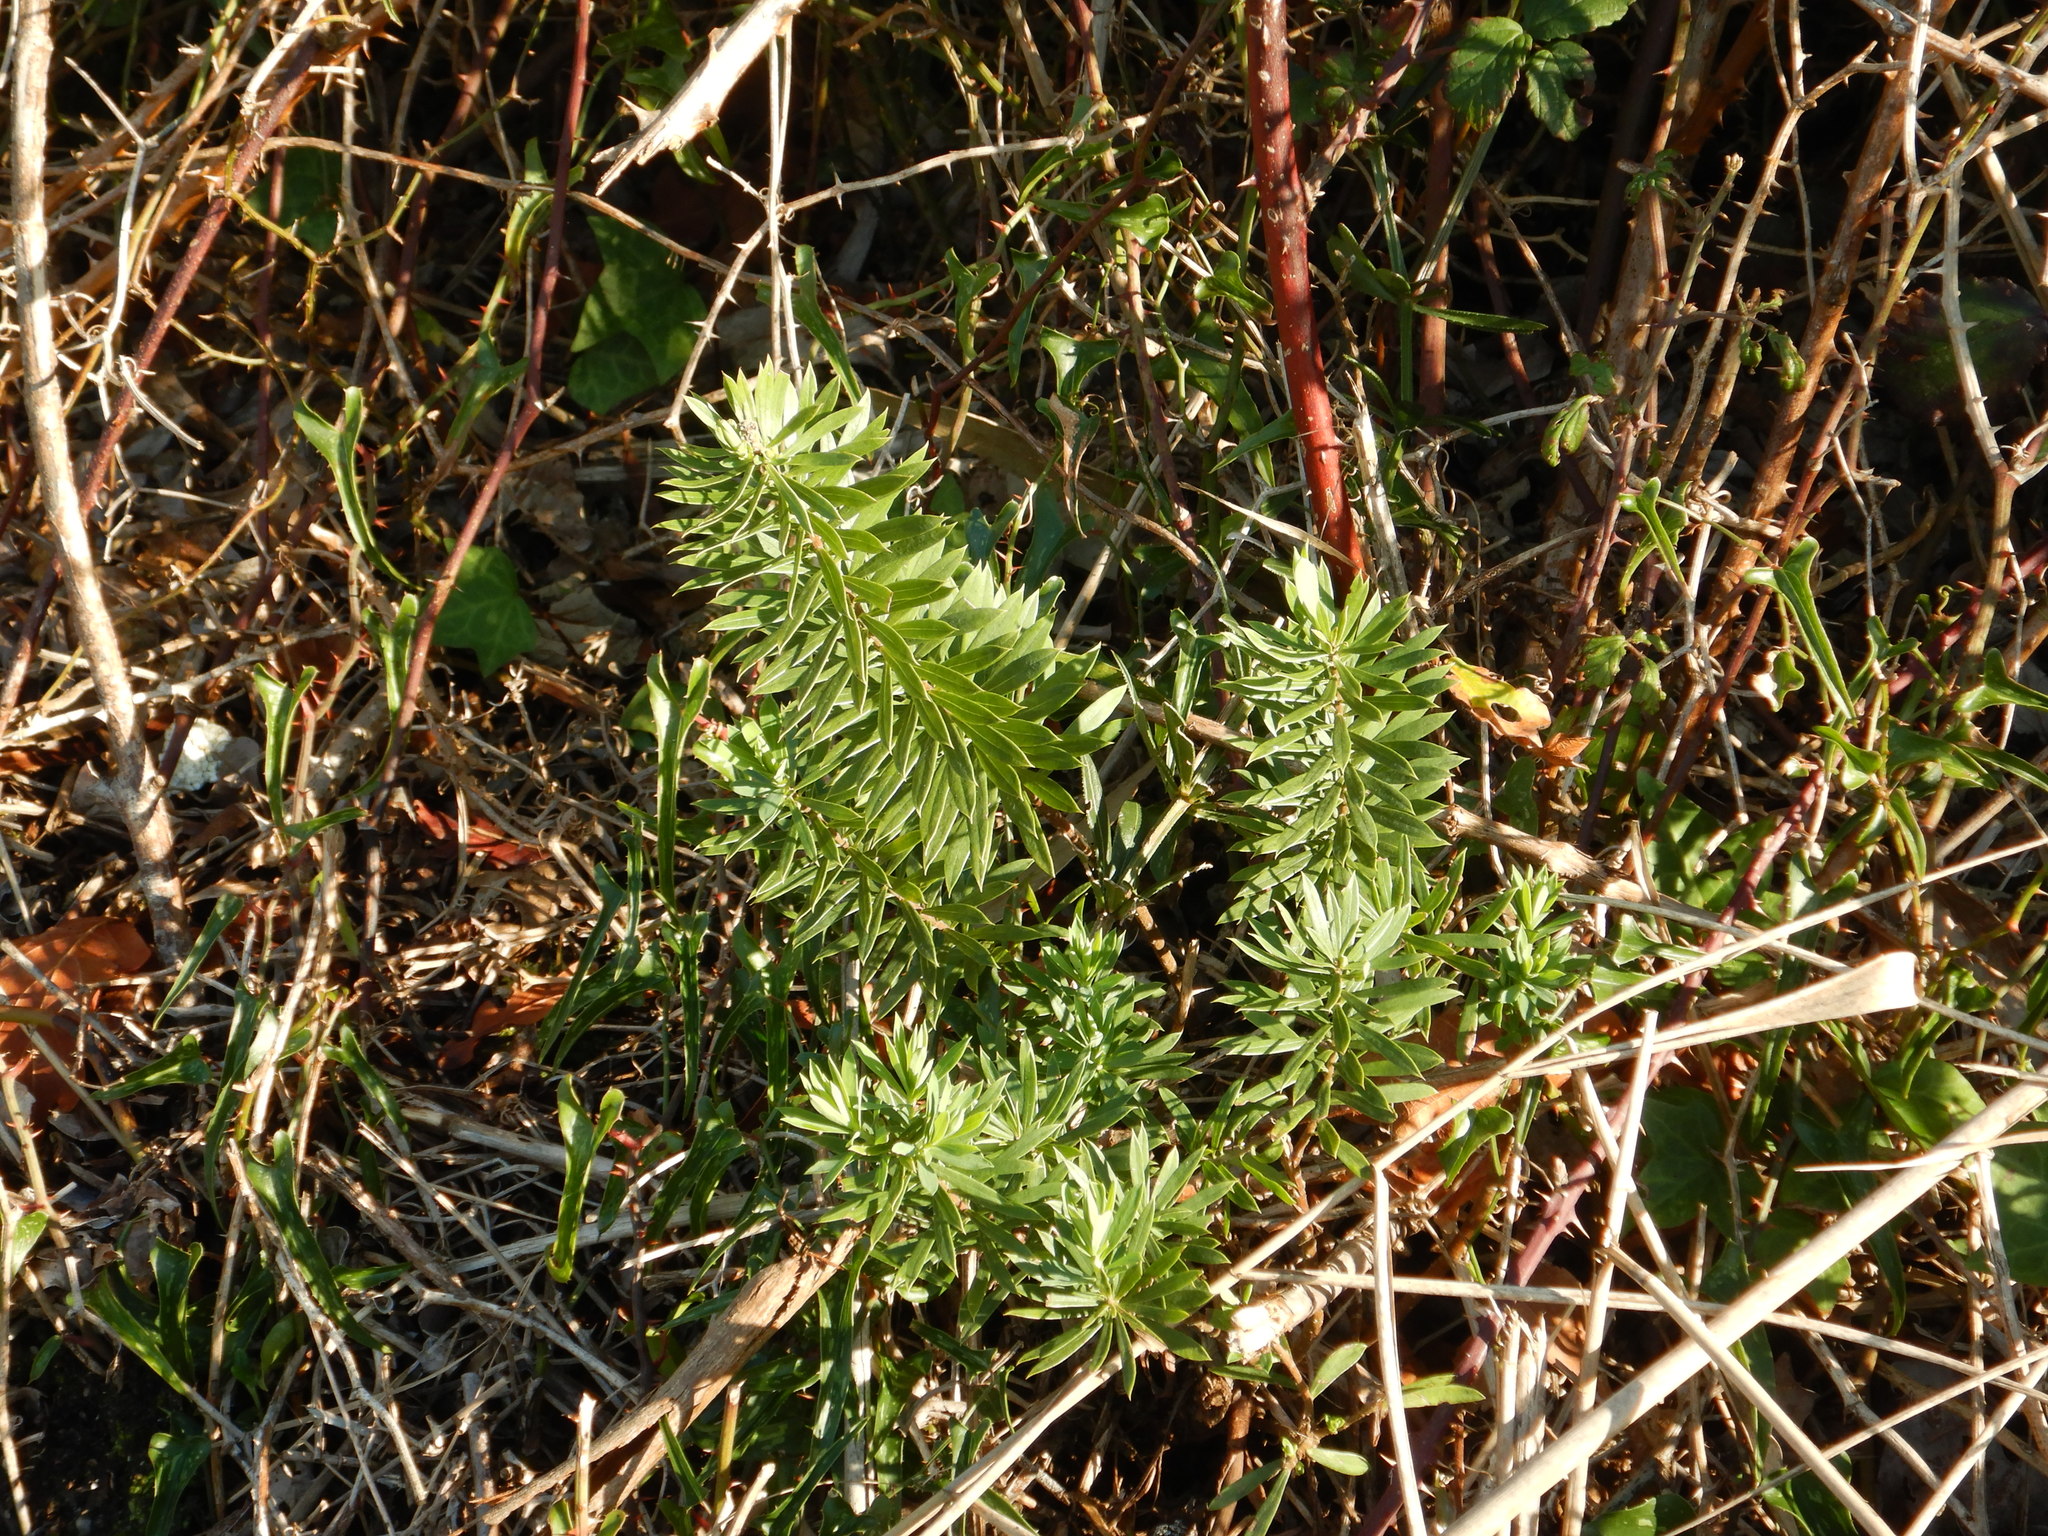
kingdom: Plantae
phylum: Tracheophyta
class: Magnoliopsida
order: Malvales
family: Thymelaeaceae
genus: Daphne
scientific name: Daphne gnidium
